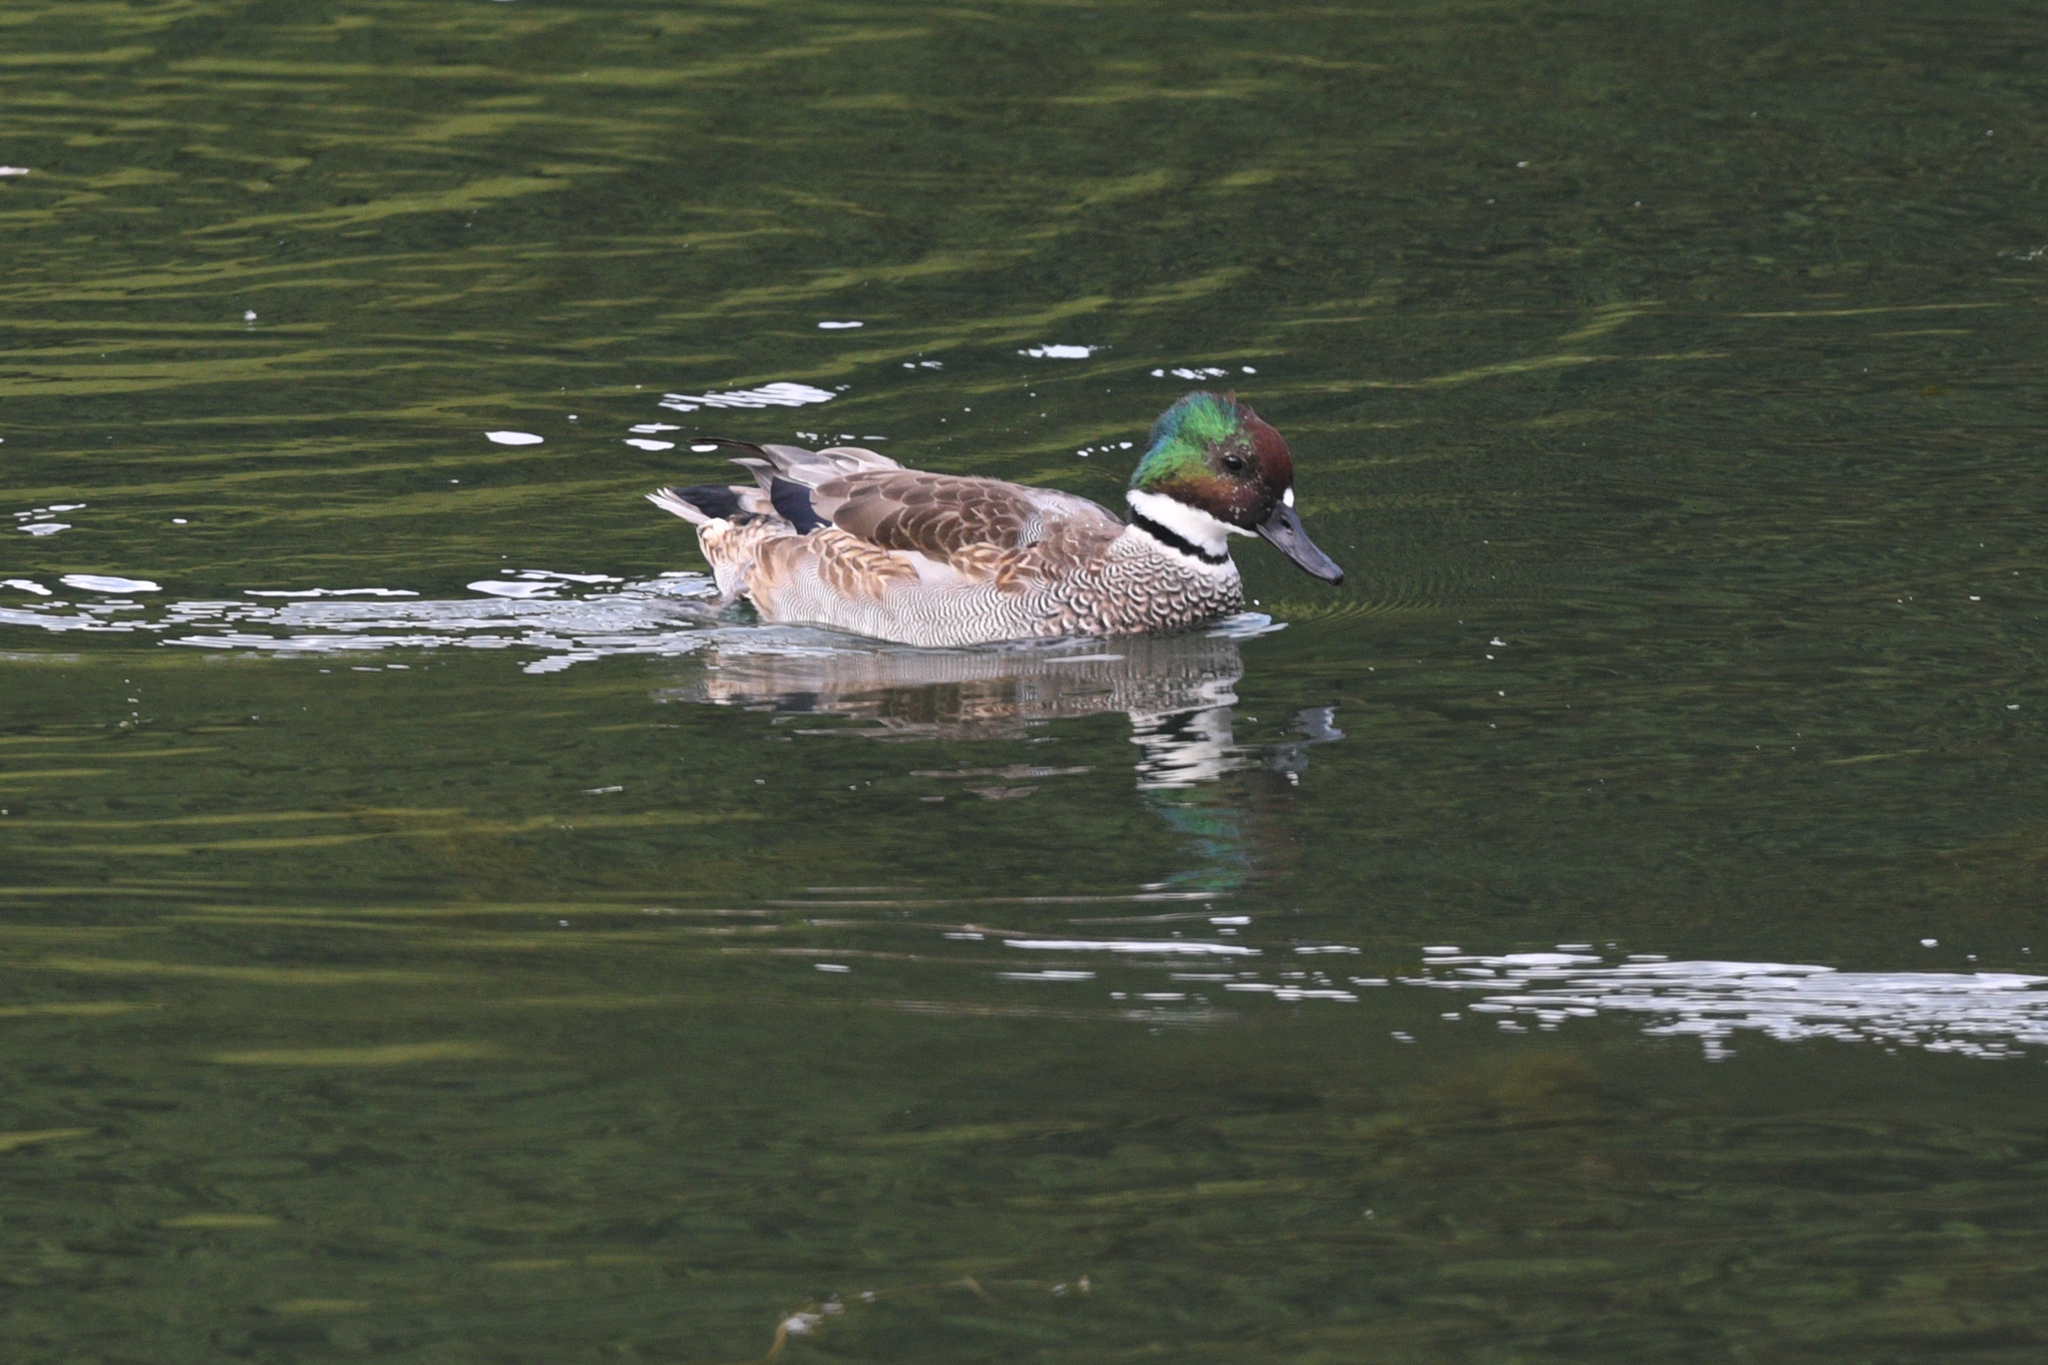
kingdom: Animalia
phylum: Chordata
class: Aves
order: Anseriformes
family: Anatidae
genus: Mareca
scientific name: Mareca falcata
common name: Falcated duck
